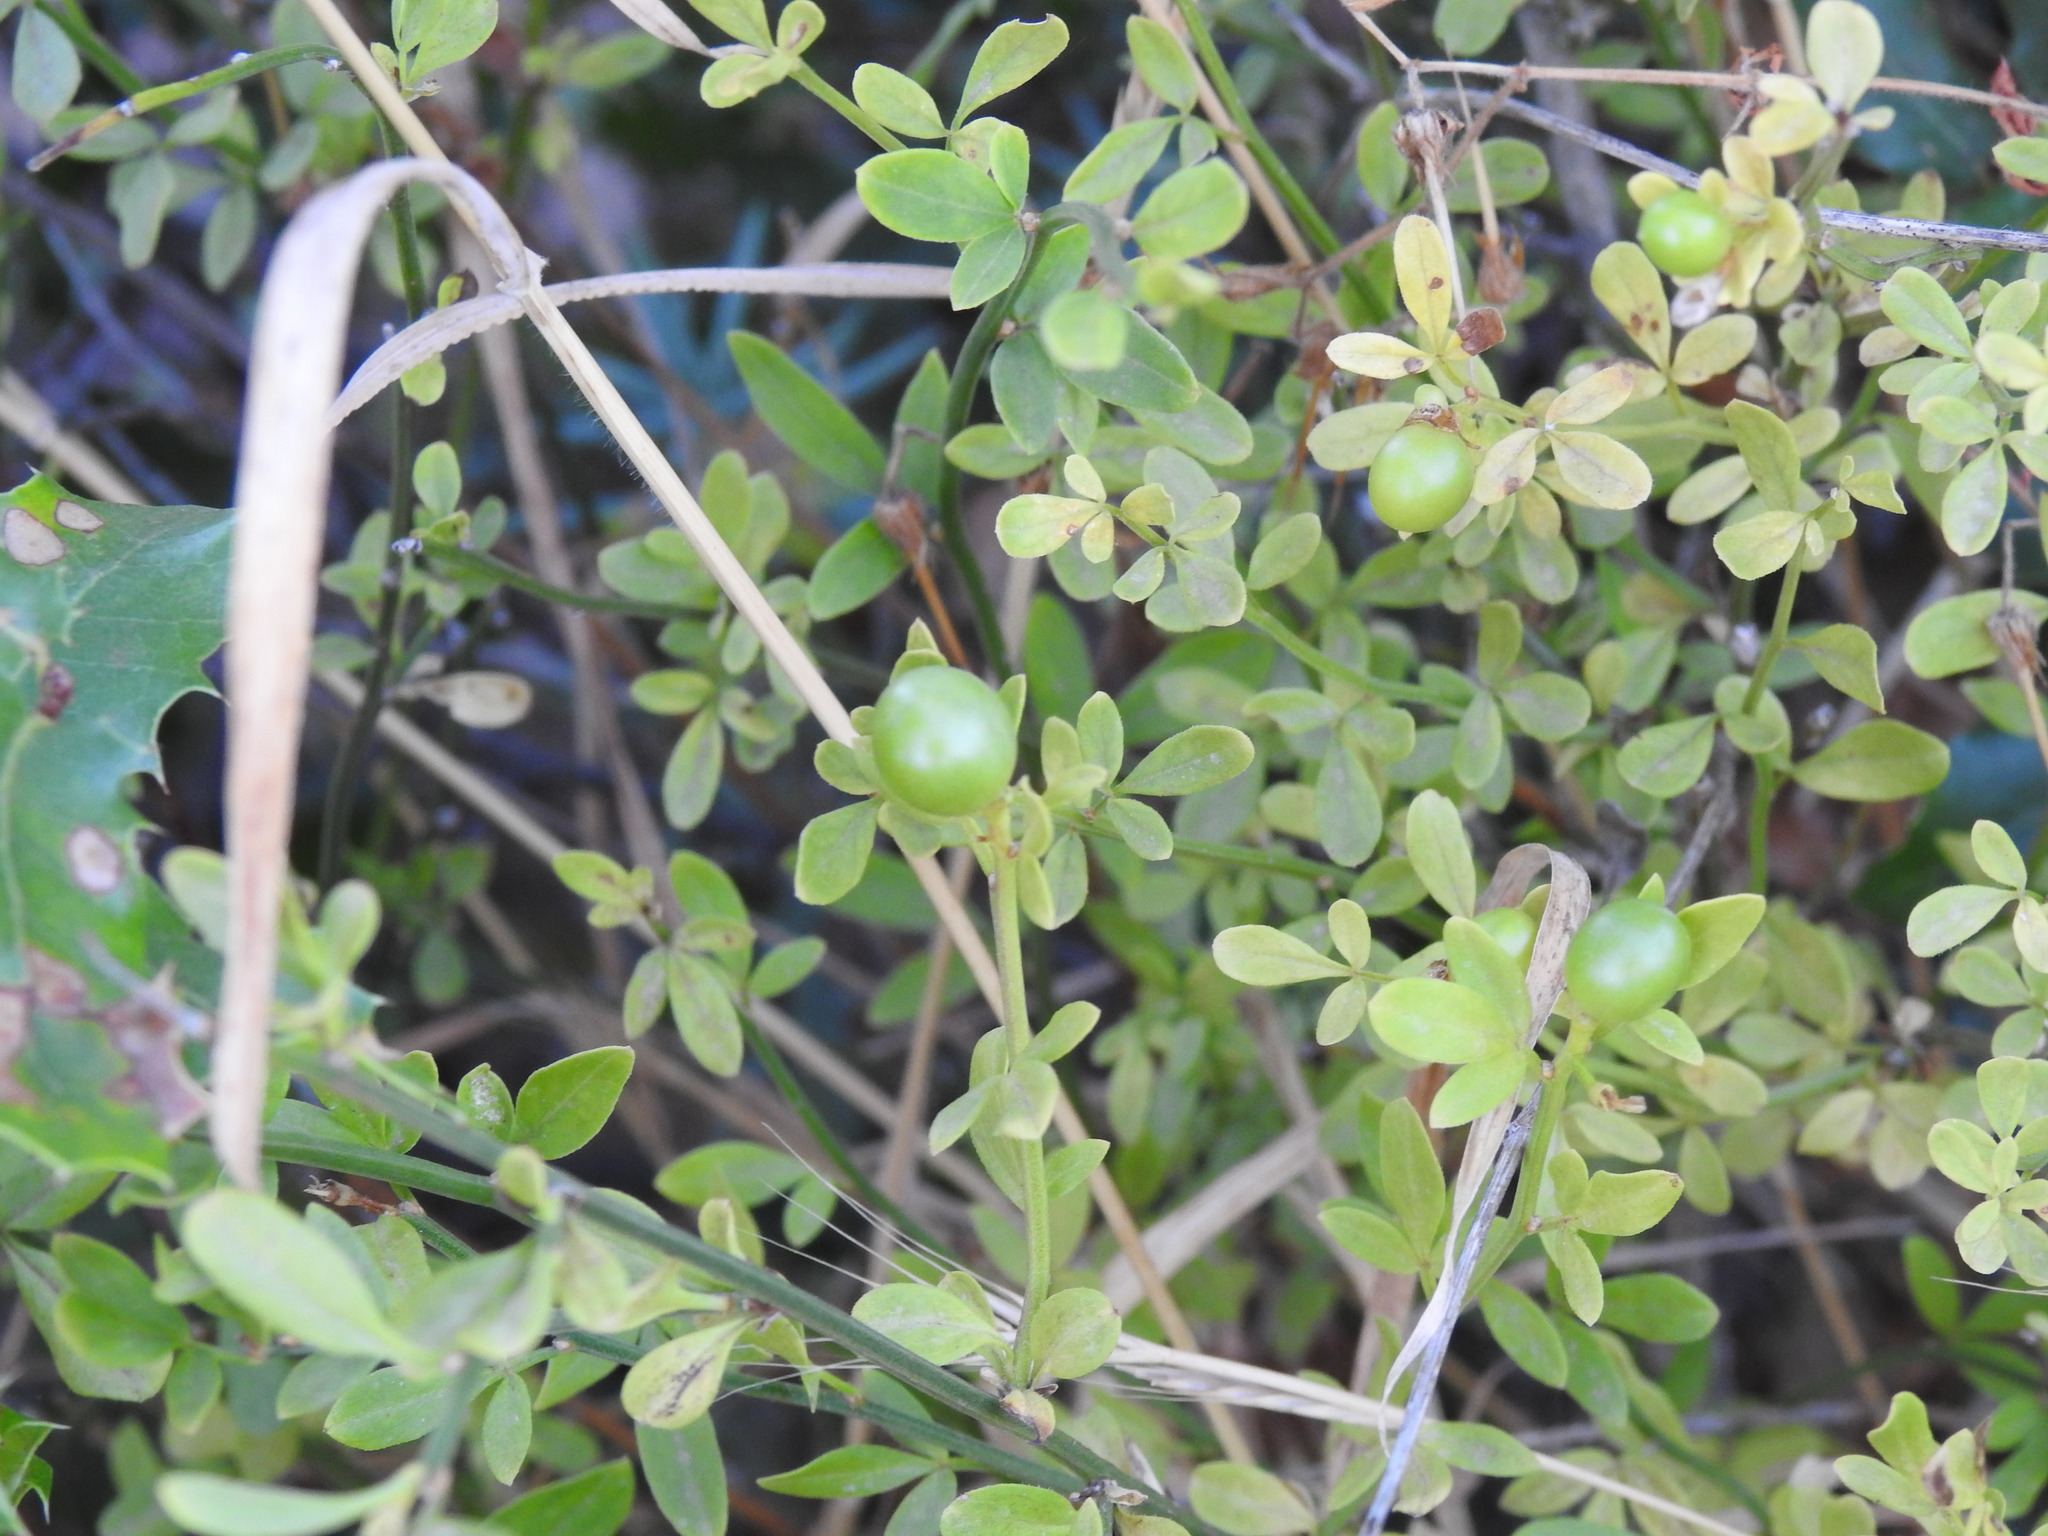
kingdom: Plantae
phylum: Tracheophyta
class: Magnoliopsida
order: Lamiales
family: Oleaceae
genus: Chrysojasminum
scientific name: Chrysojasminum fruticans
